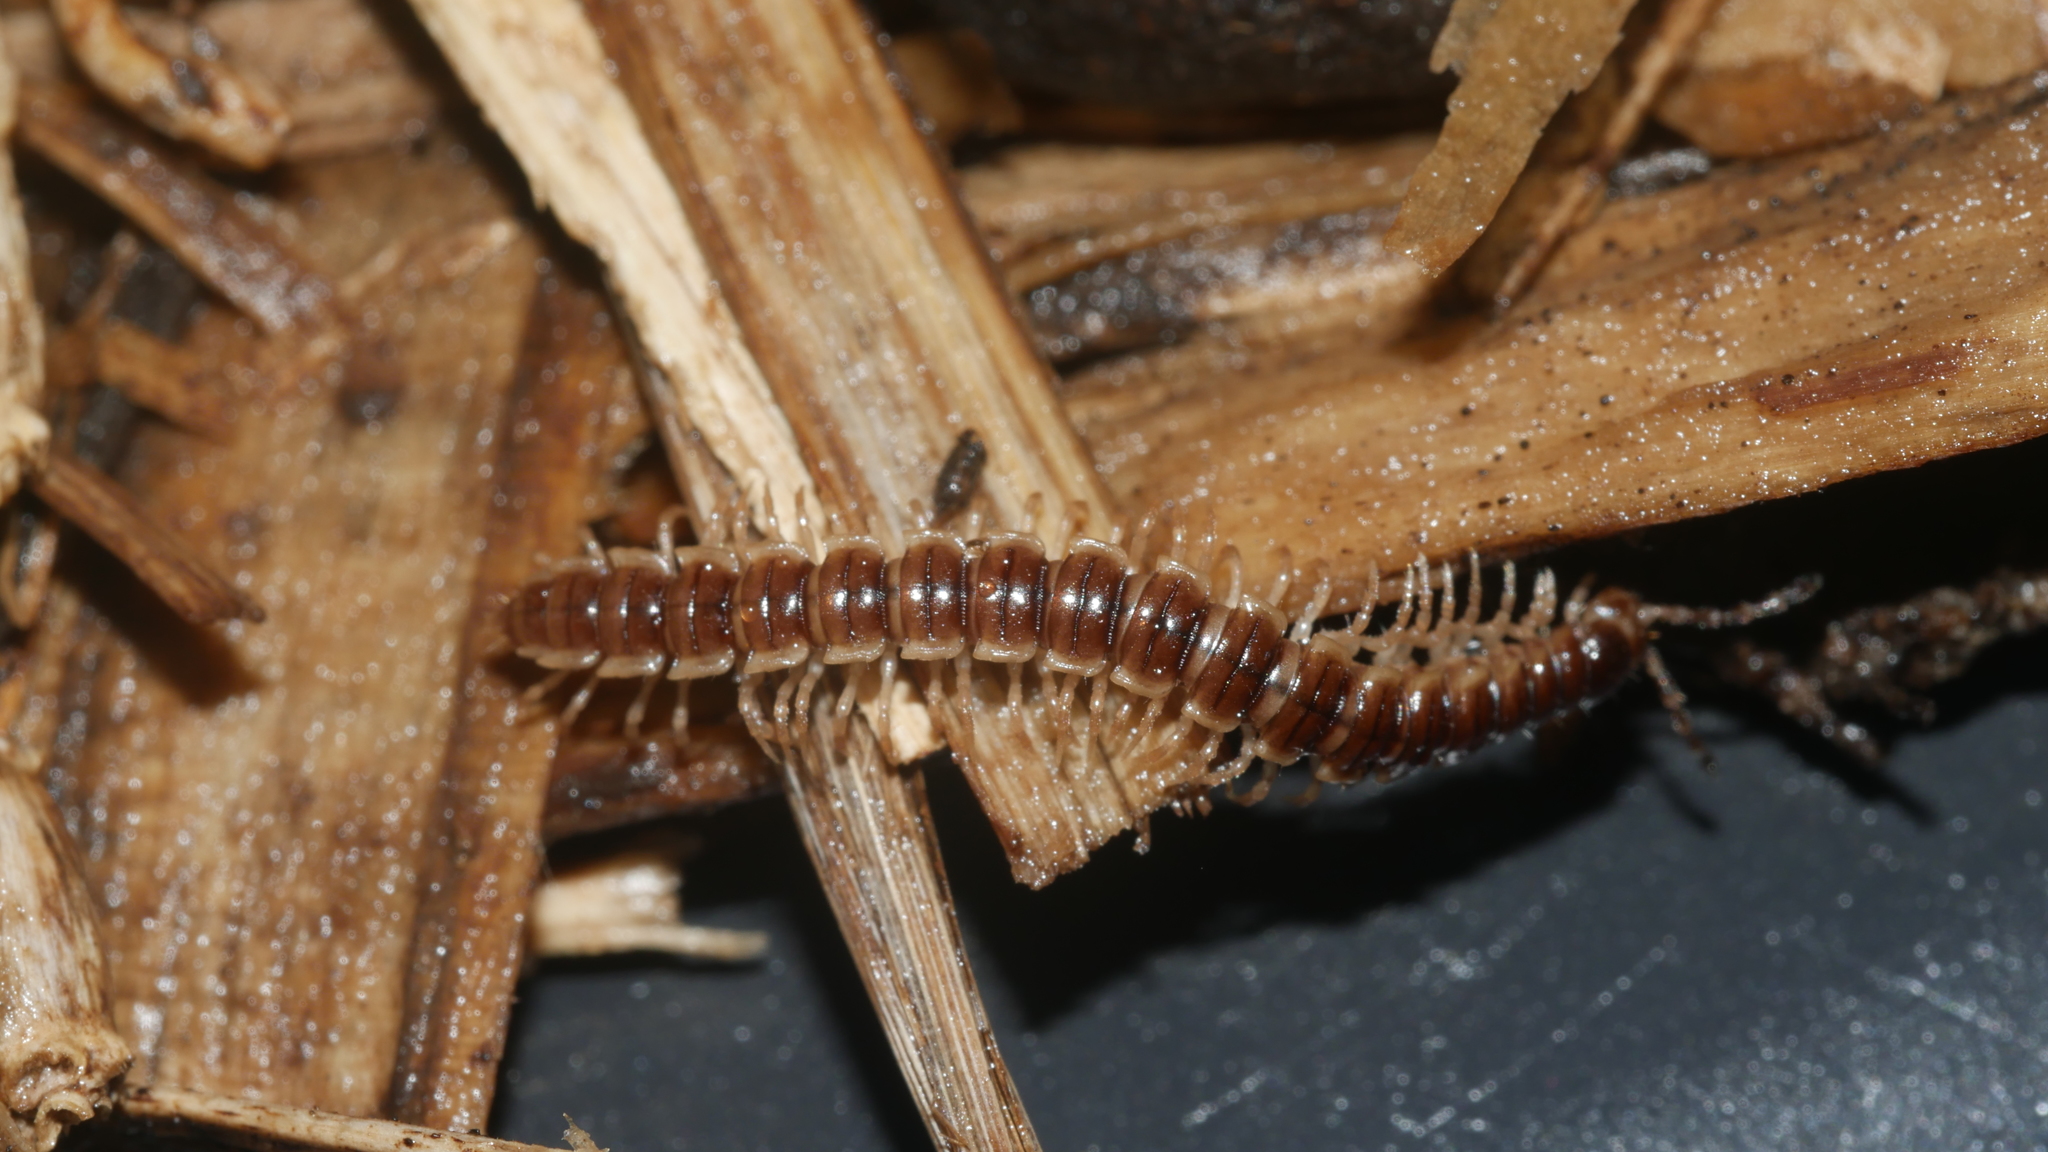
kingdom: Animalia
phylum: Arthropoda
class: Diplopoda
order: Polydesmida
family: Paradoxosomatidae
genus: Oxidus
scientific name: Oxidus gracilis
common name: Greenhouse millipede
